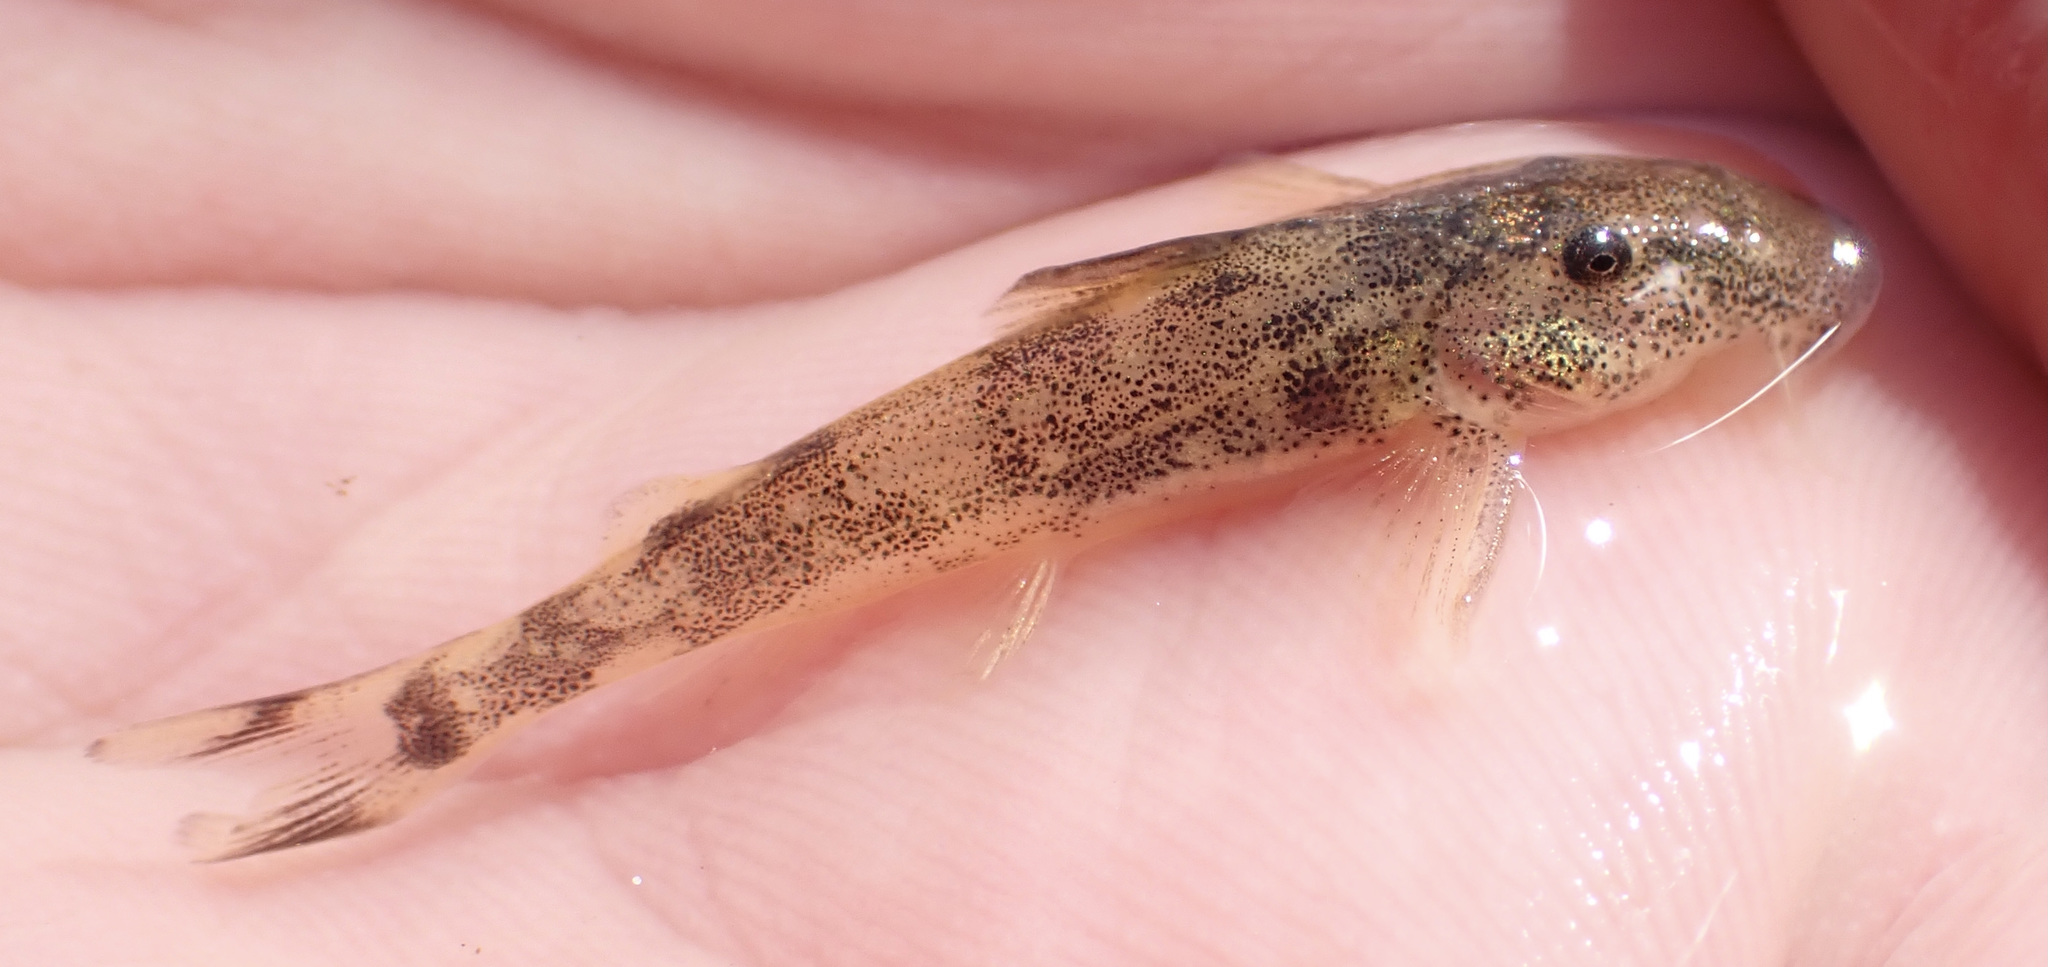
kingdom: Animalia
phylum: Chordata
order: Siluriformes
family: Mochokidae
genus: Chiloglanis
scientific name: Chiloglanis fasciatus
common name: Okavango suckermouth
